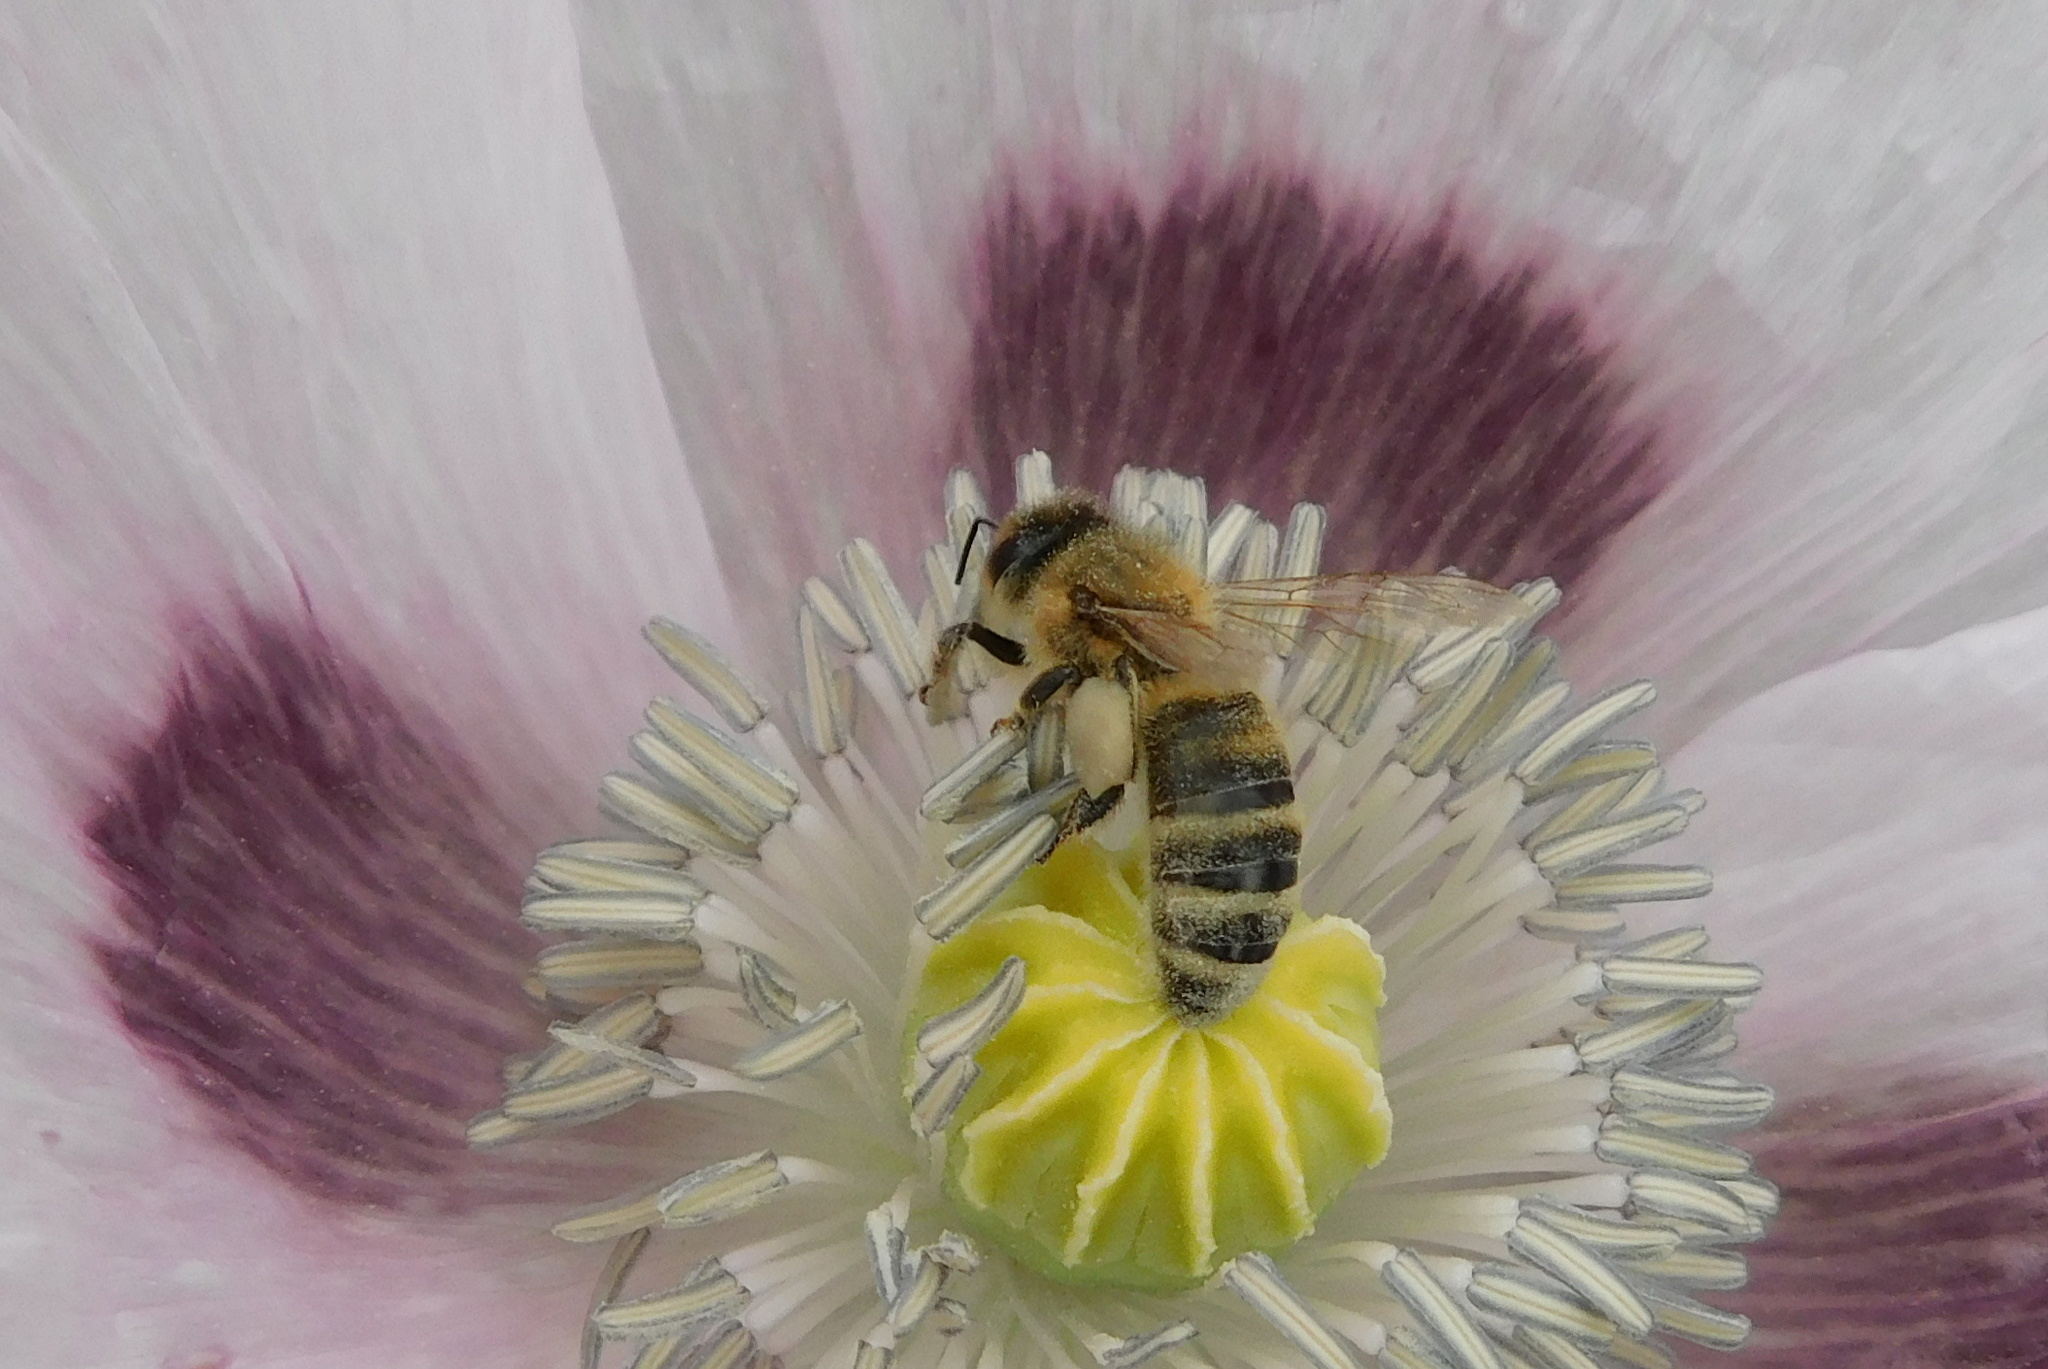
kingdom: Animalia
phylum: Arthropoda
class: Insecta
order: Hymenoptera
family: Apidae
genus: Apis
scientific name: Apis mellifera
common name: Honey bee
